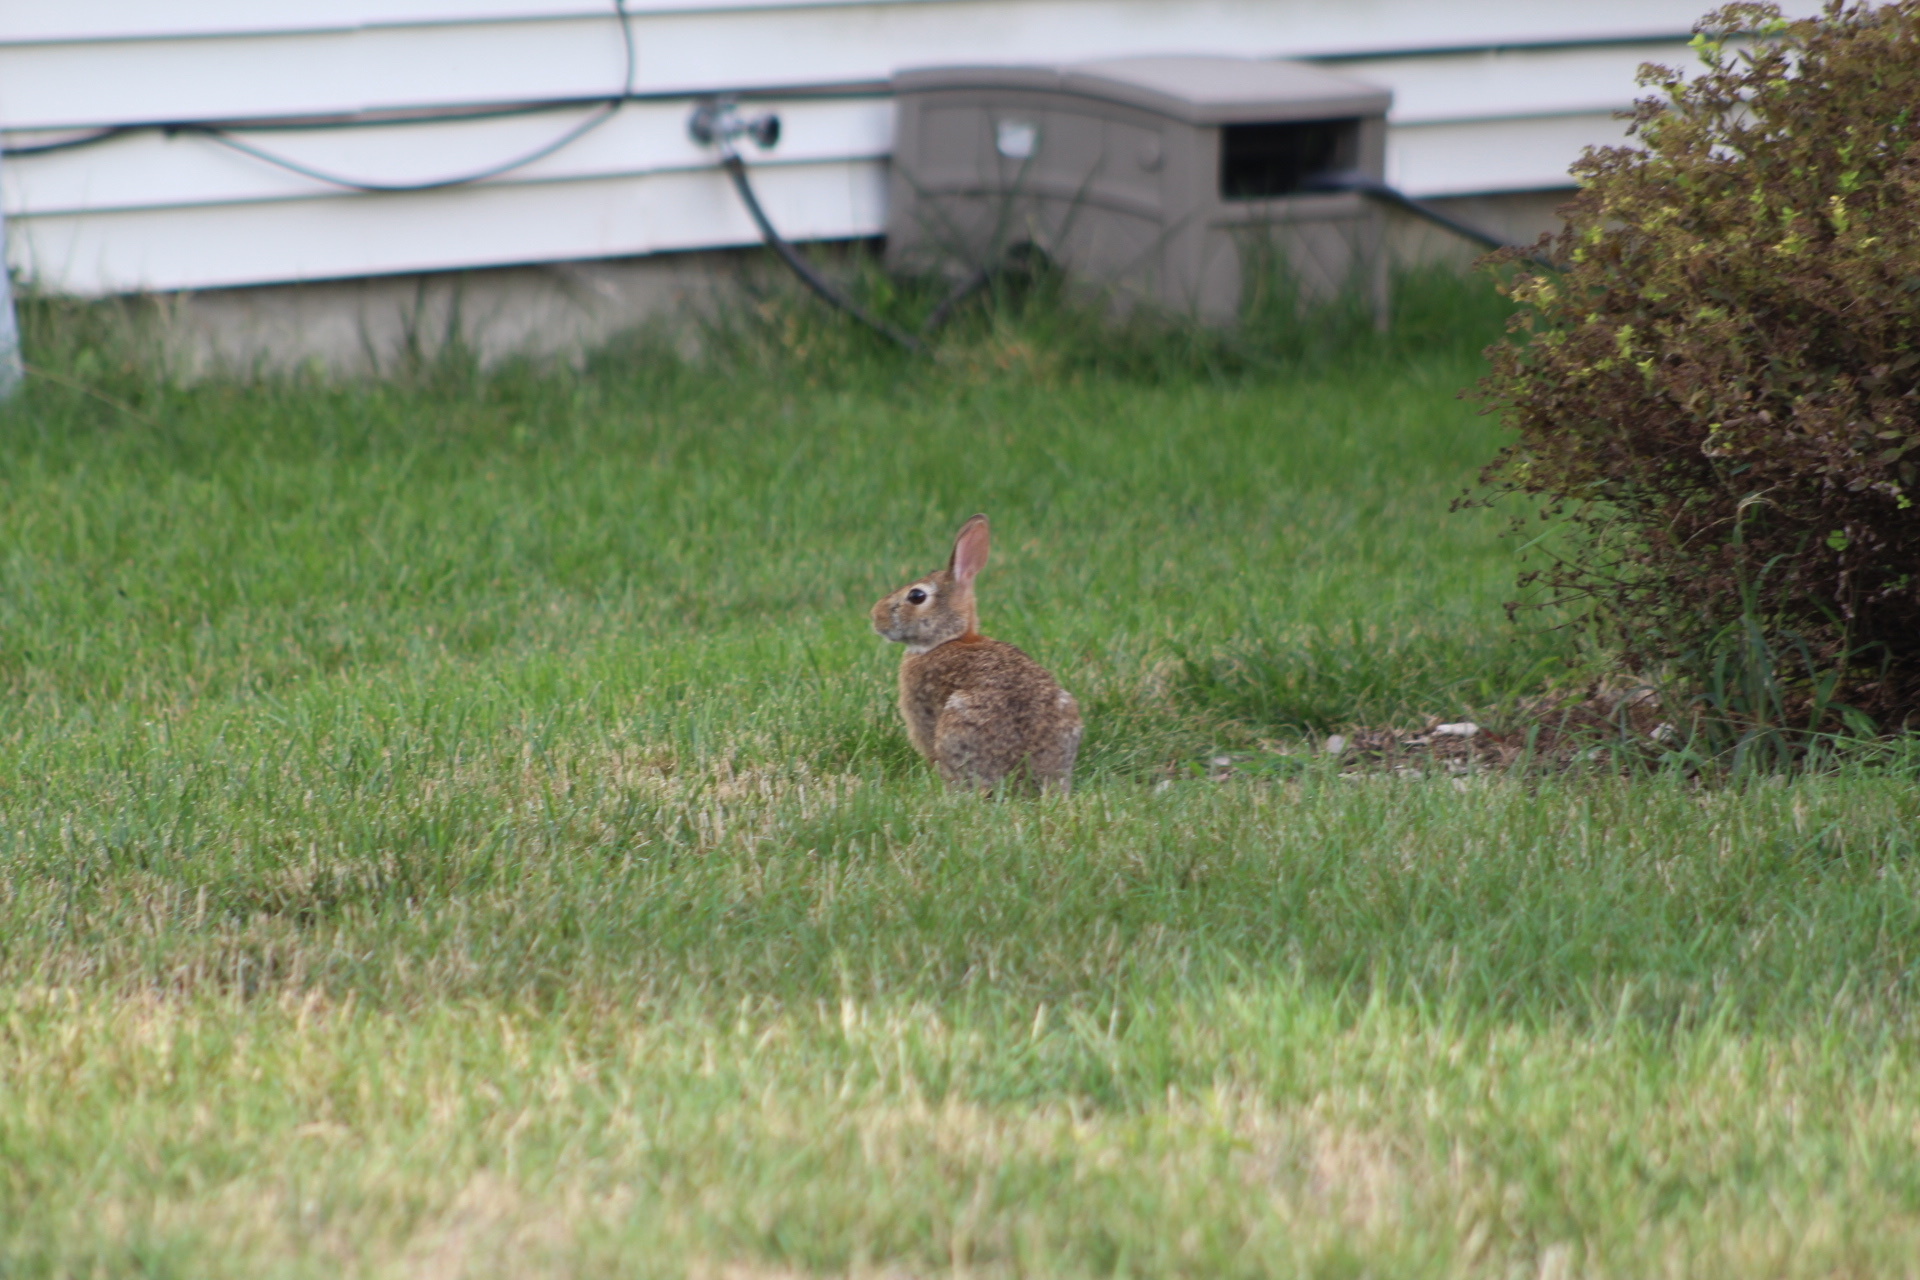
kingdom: Animalia
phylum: Chordata
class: Mammalia
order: Lagomorpha
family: Leporidae
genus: Sylvilagus
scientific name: Sylvilagus floridanus
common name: Eastern cottontail
